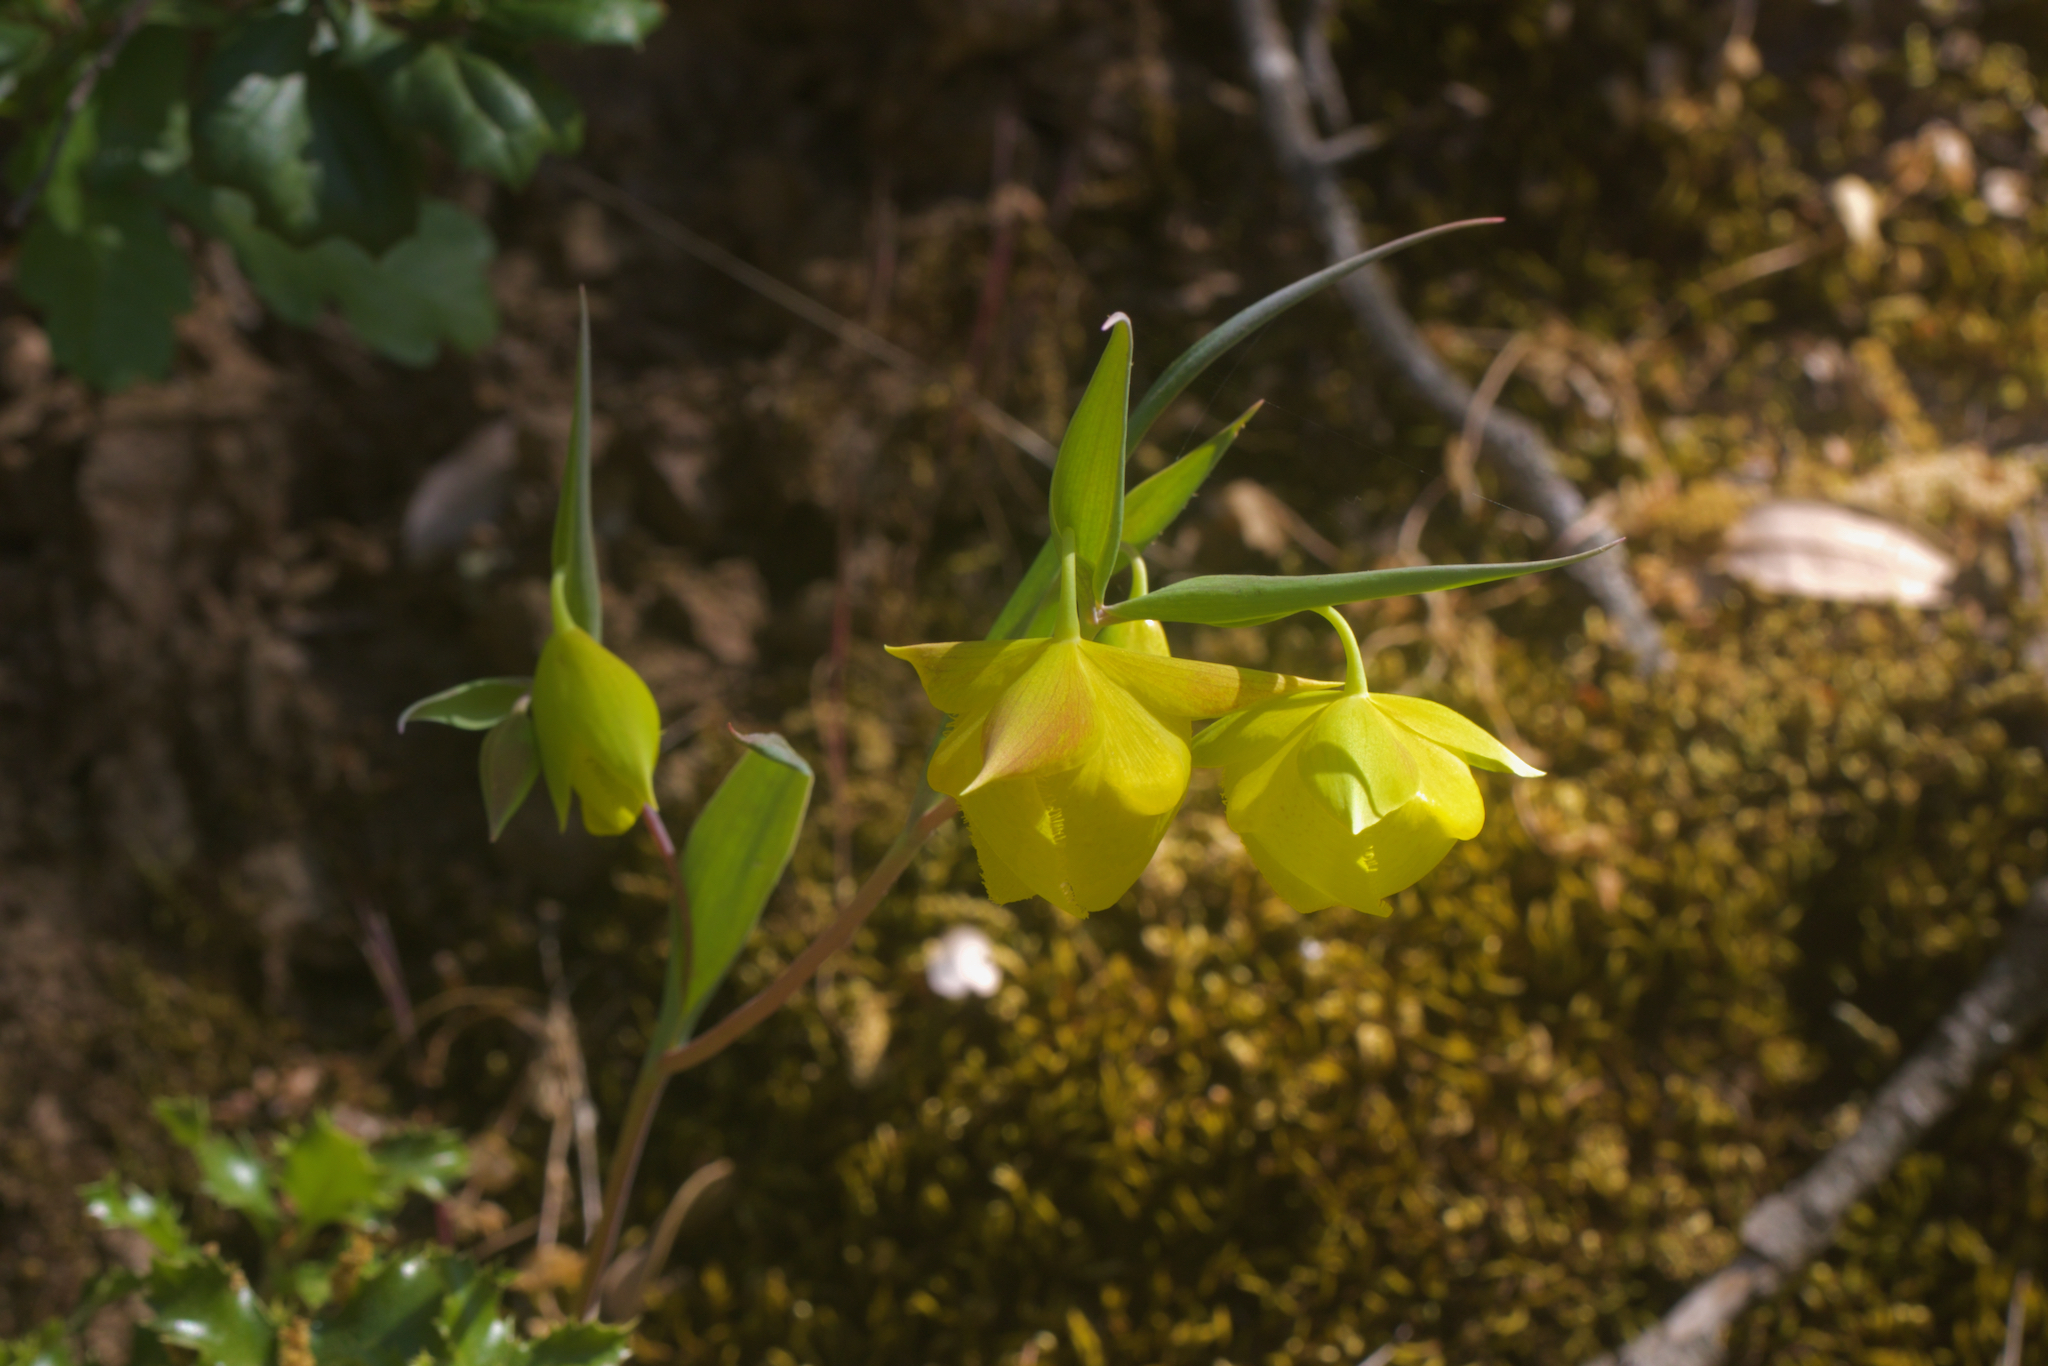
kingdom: Plantae
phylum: Tracheophyta
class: Liliopsida
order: Liliales
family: Liliaceae
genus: Calochortus
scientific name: Calochortus pulchellus
